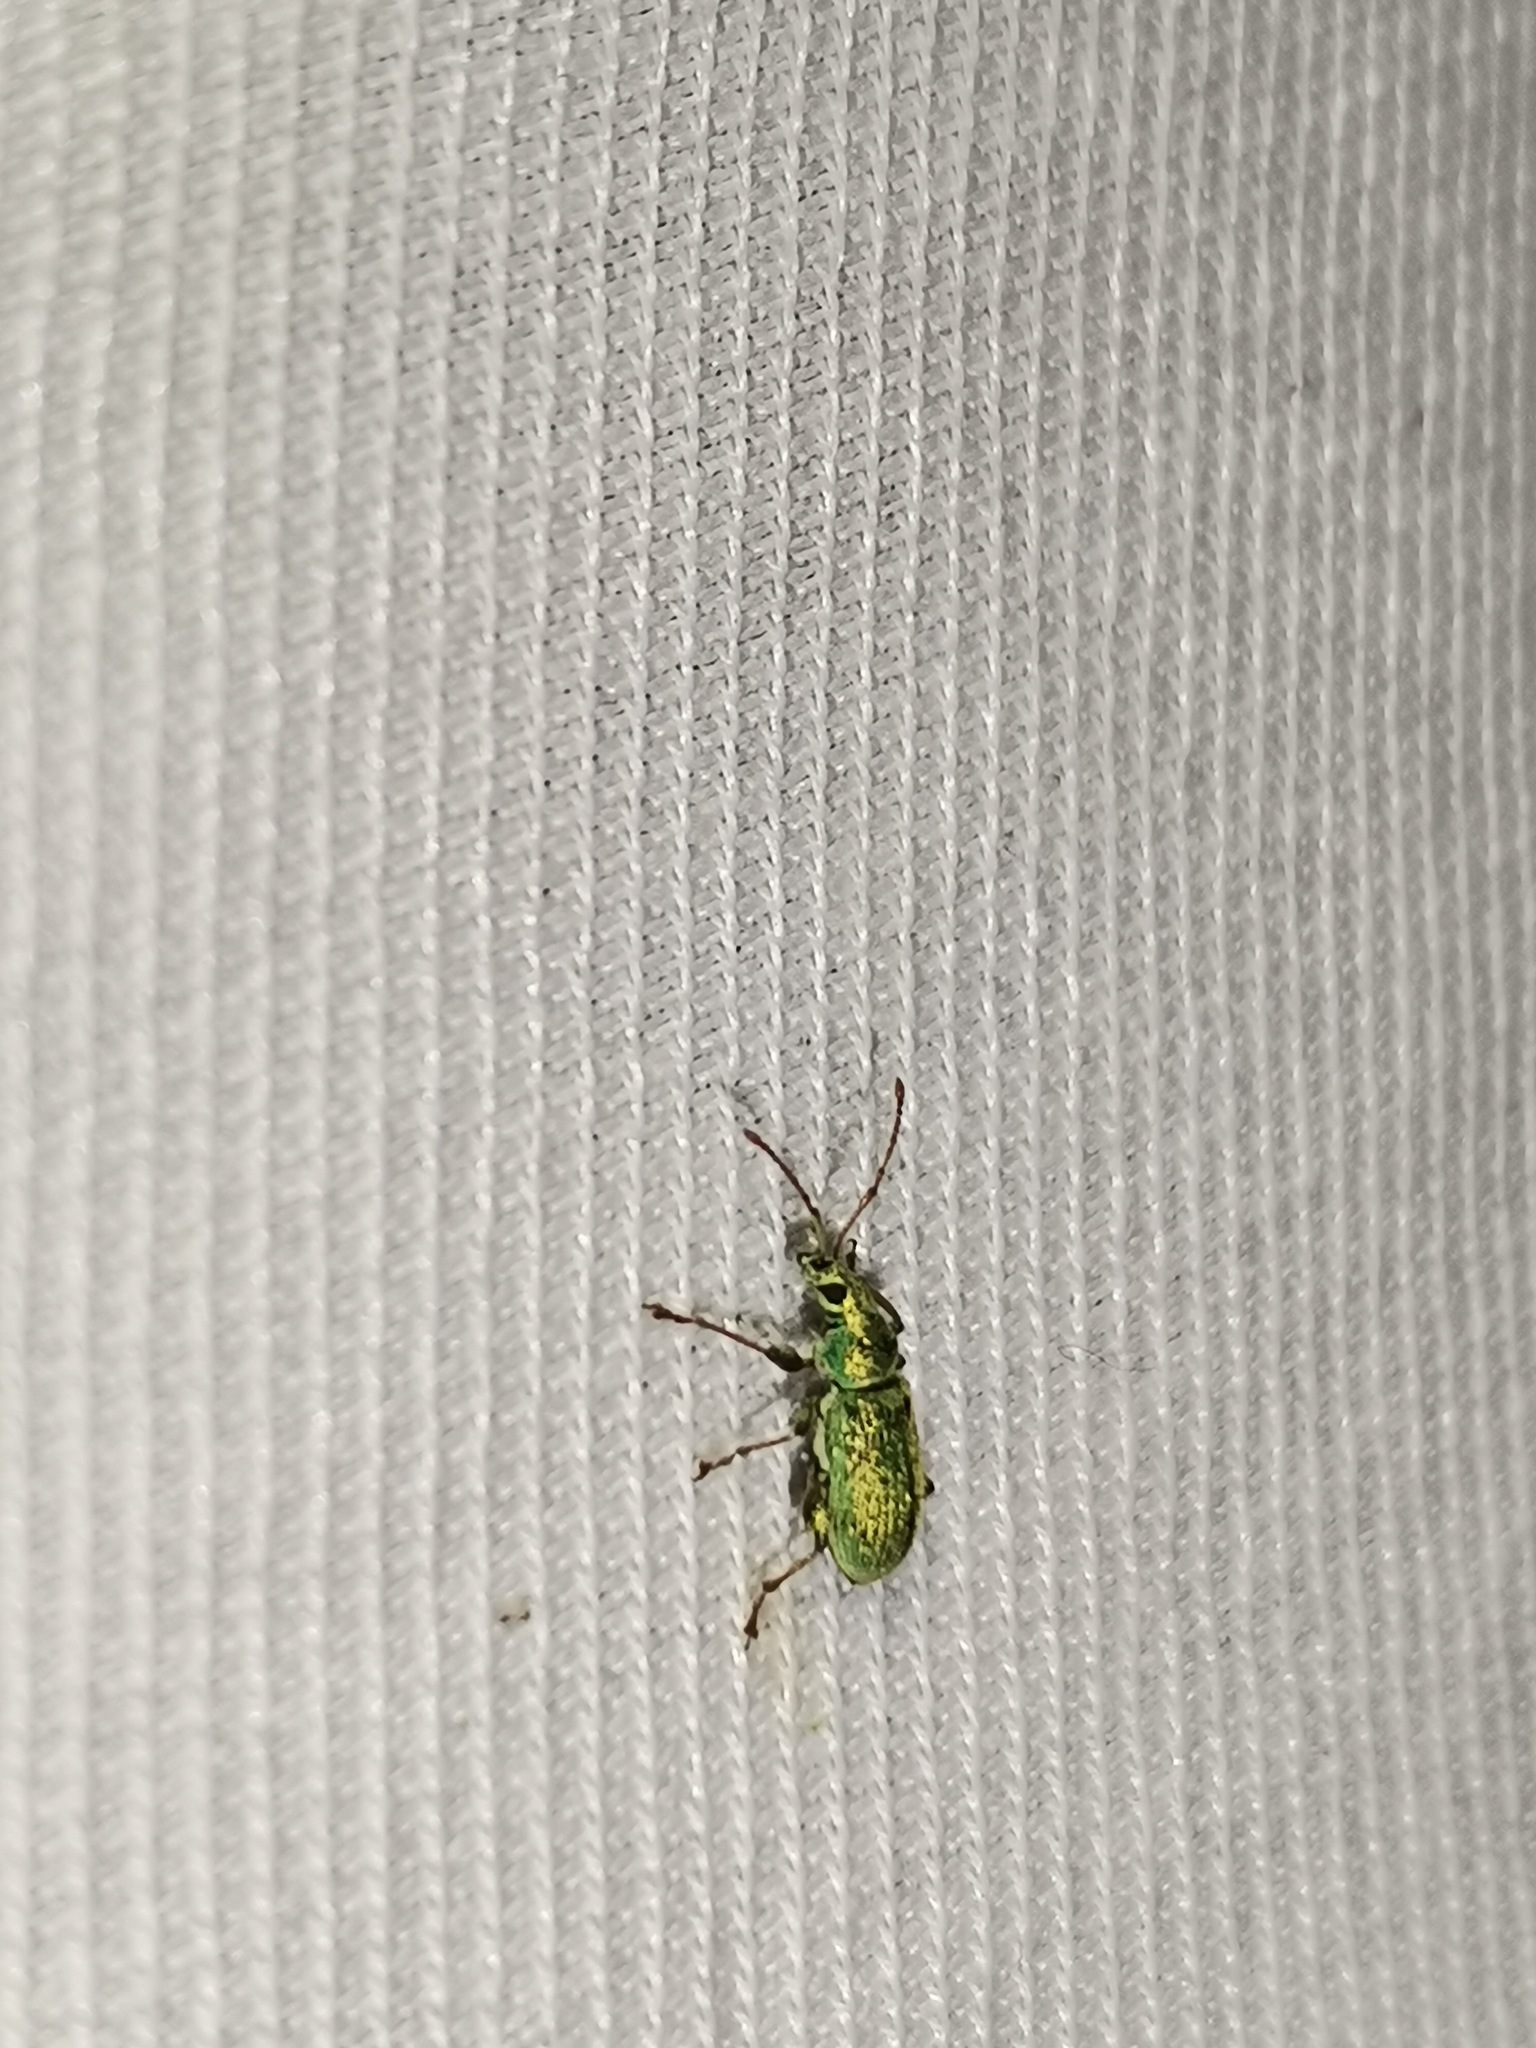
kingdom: Animalia
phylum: Arthropoda
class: Insecta
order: Coleoptera
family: Curculionidae
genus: Phyllobius
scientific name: Phyllobius argentatus
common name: Silver-green leaf weevil
